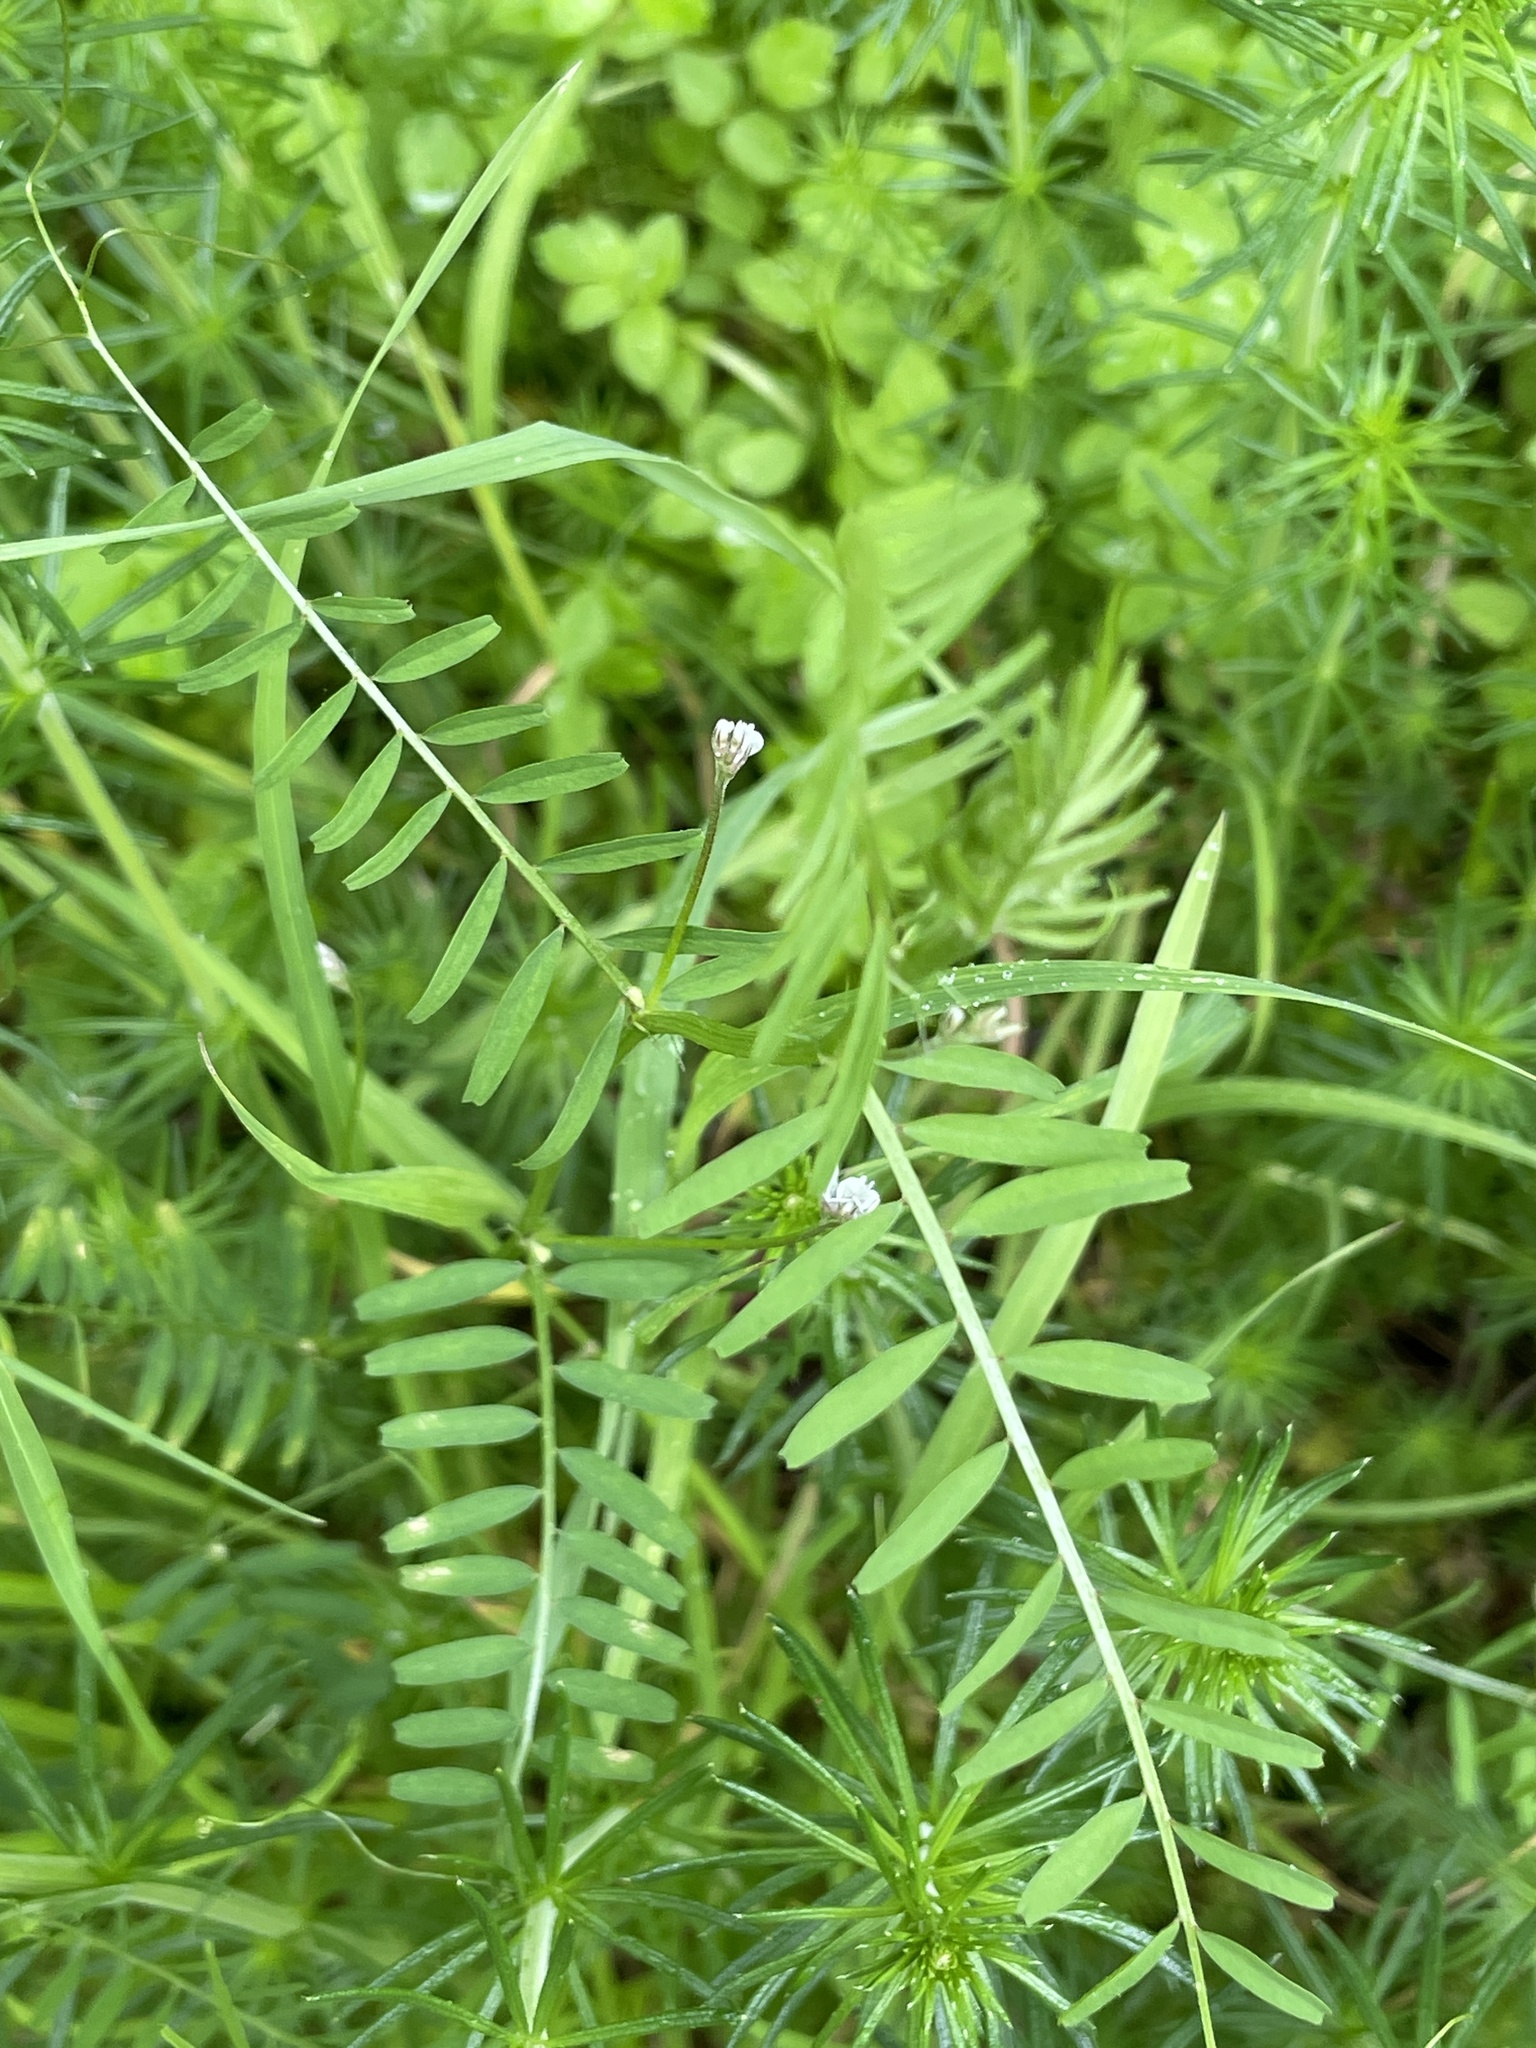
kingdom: Plantae
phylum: Tracheophyta
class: Magnoliopsida
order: Fabales
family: Fabaceae
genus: Vicia
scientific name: Vicia hirsuta
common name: Tiny vetch
